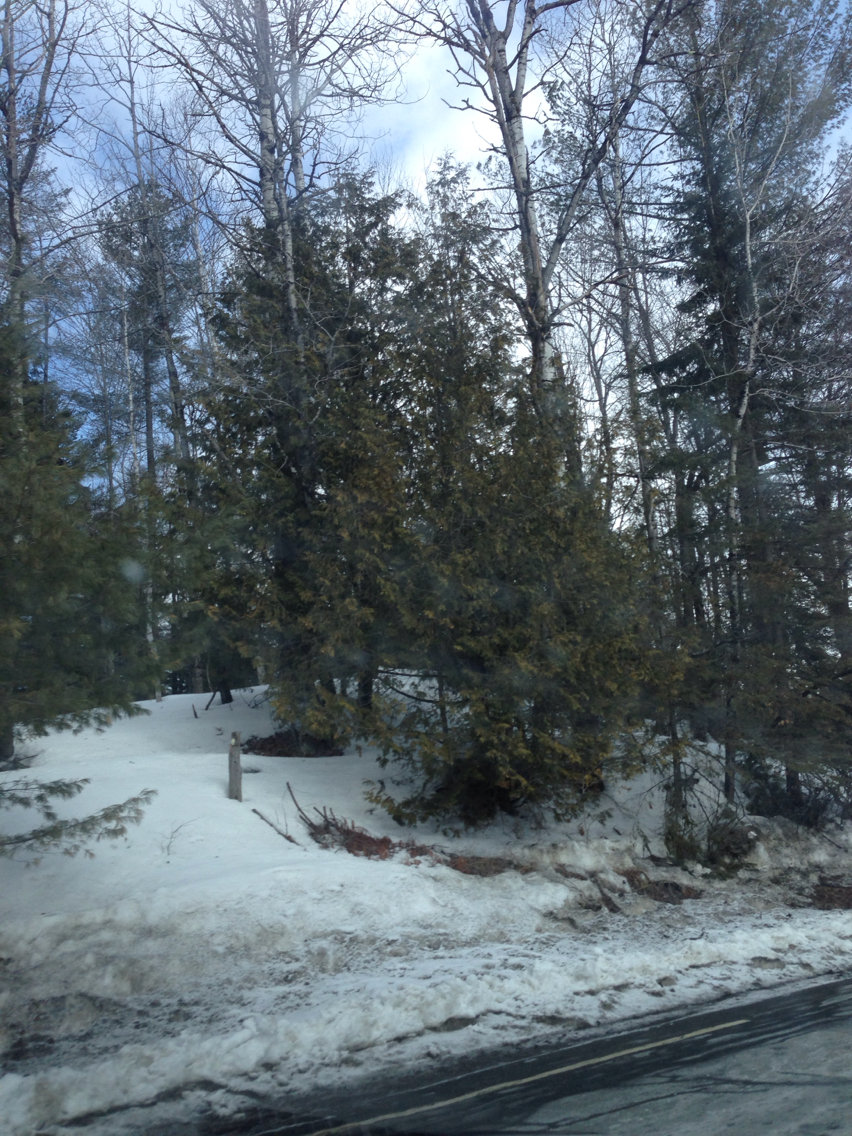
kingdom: Plantae
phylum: Tracheophyta
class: Pinopsida
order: Pinales
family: Cupressaceae
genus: Thuja
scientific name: Thuja occidentalis
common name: Northern white-cedar
